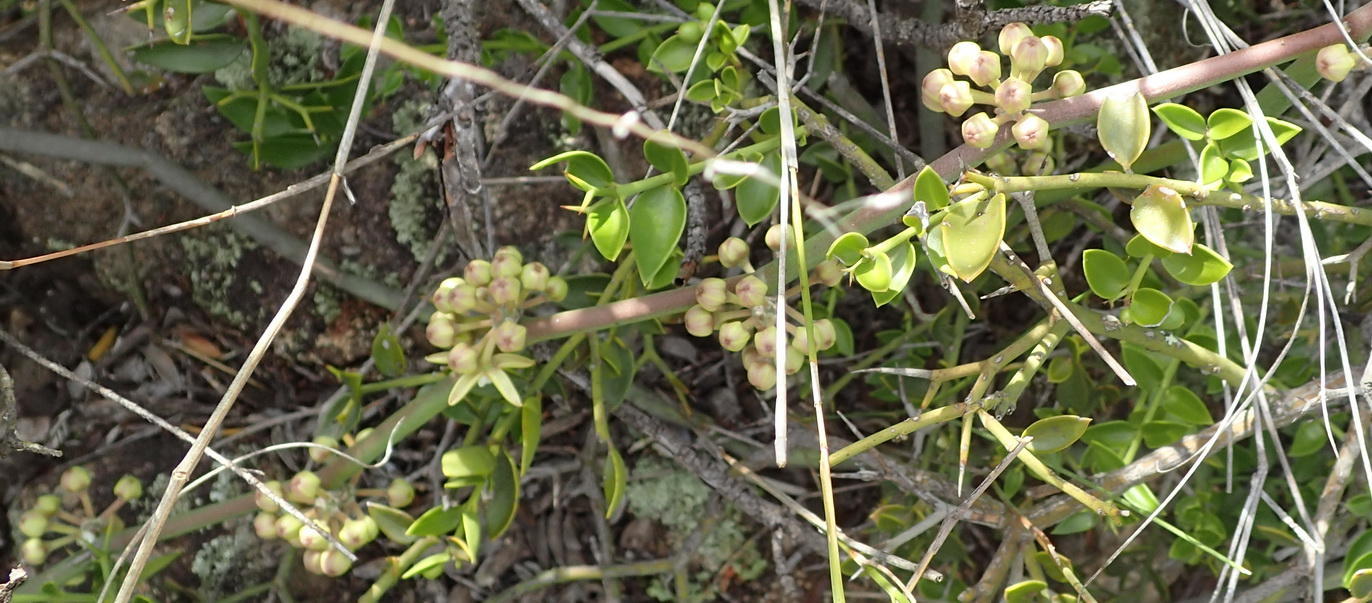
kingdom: Plantae
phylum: Tracheophyta
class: Magnoliopsida
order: Gentianales
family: Apocynaceae
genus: Cynanchum
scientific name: Cynanchum viminale
